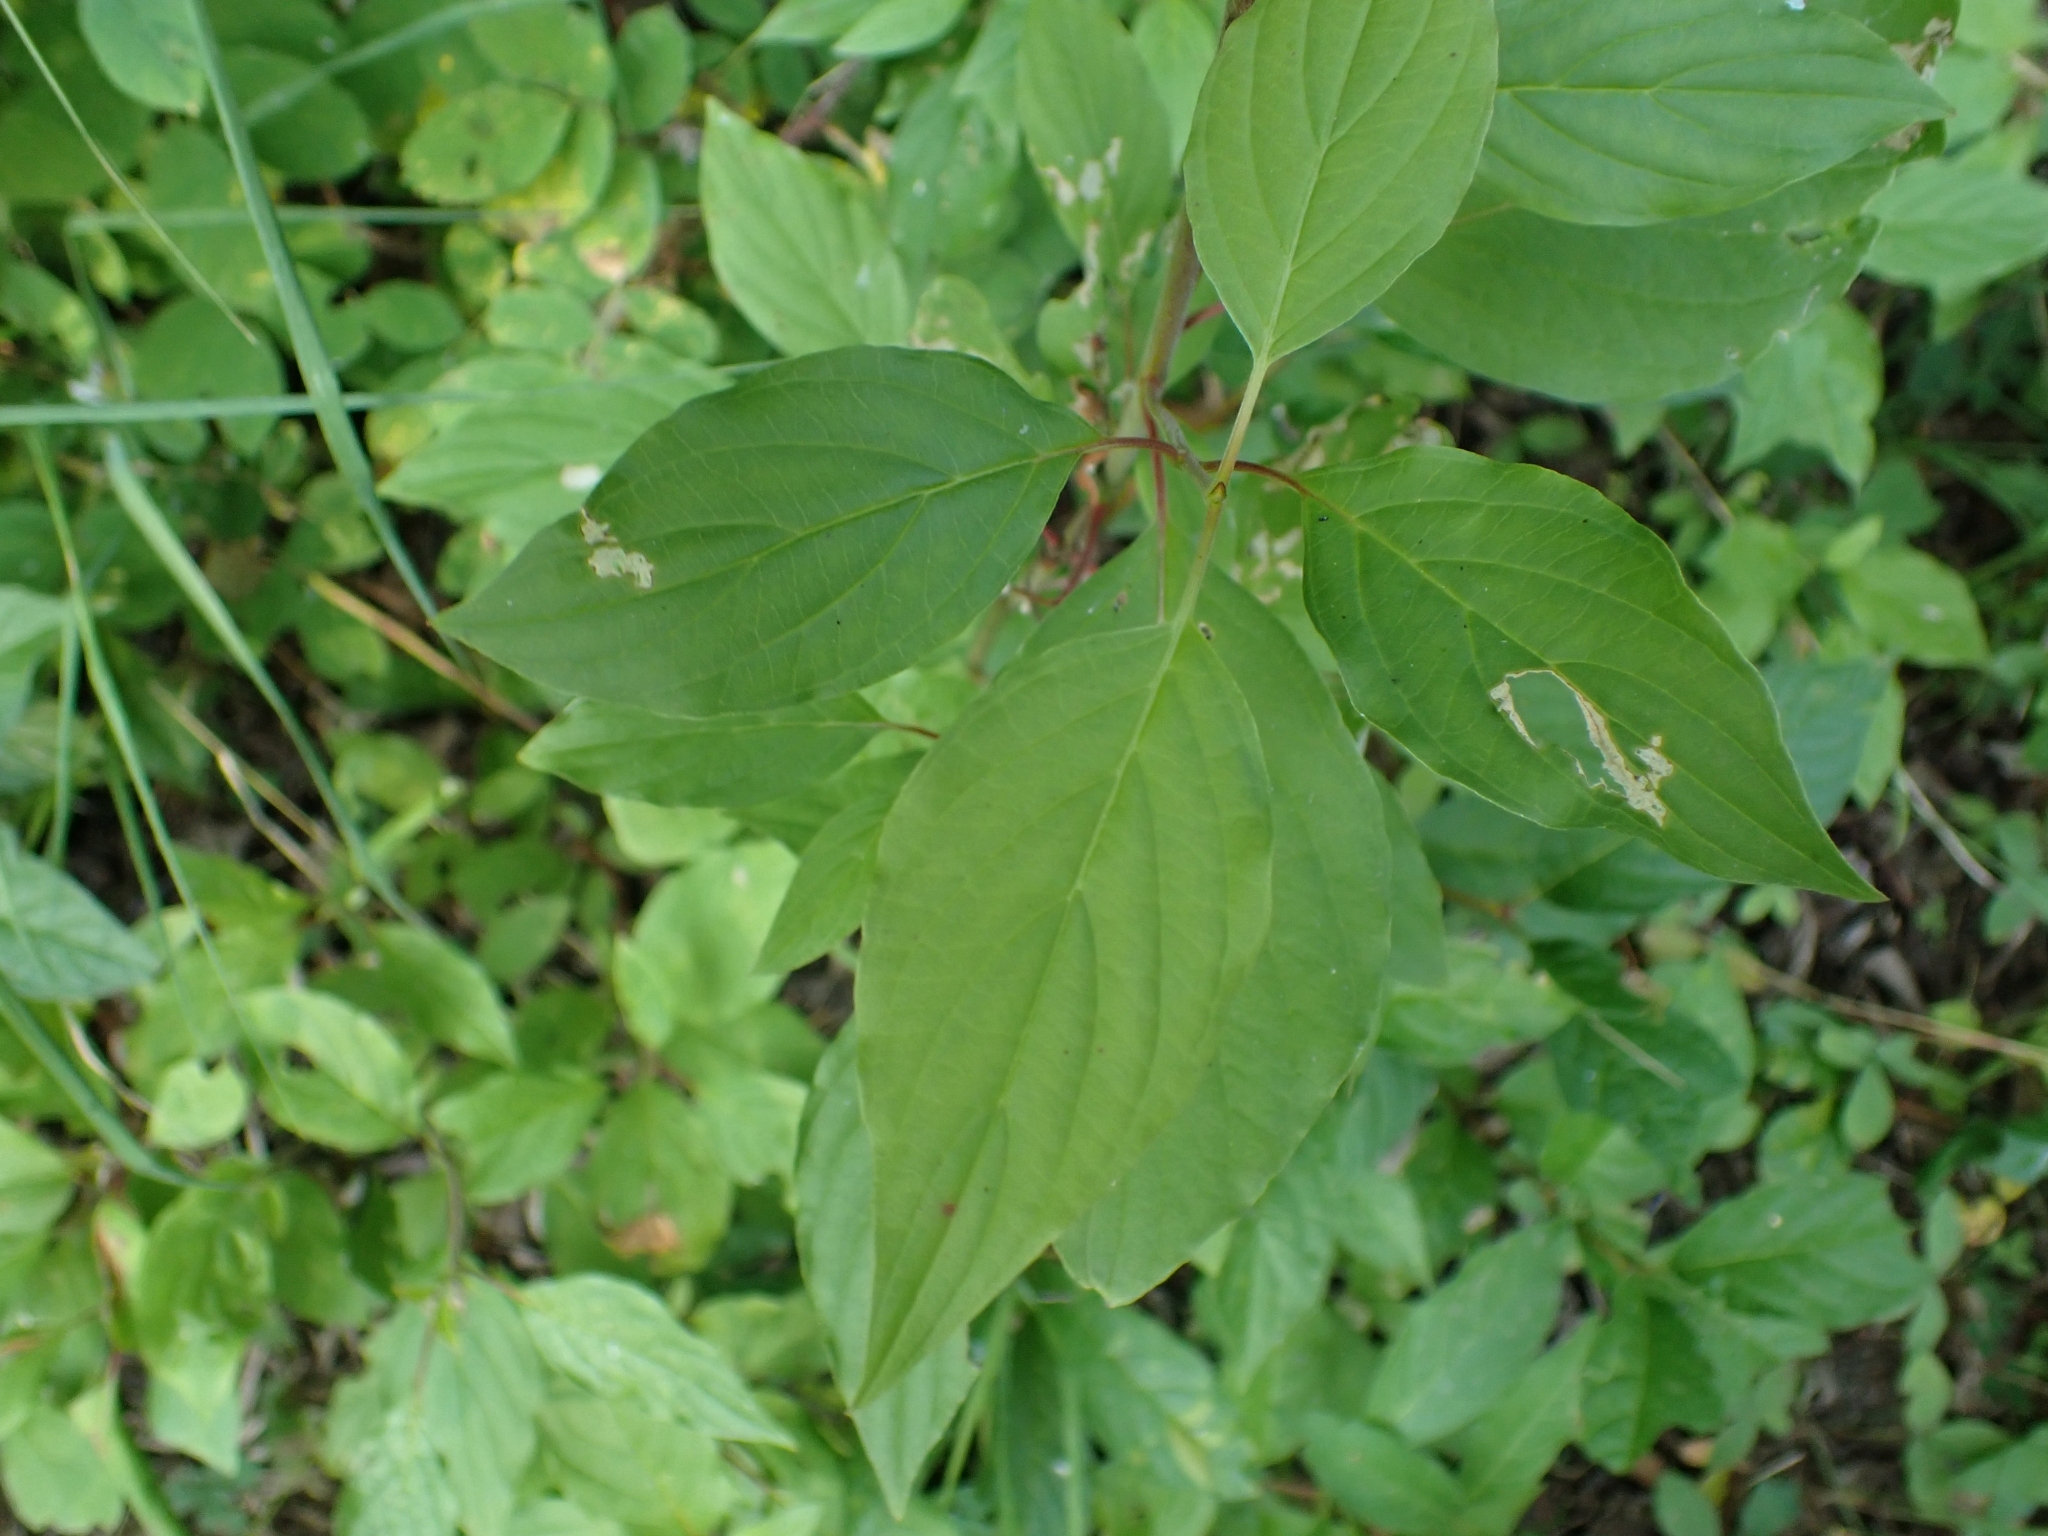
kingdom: Plantae
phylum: Tracheophyta
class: Magnoliopsida
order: Cornales
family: Cornaceae
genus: Cornus
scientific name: Cornus sericea
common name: Red-osier dogwood
